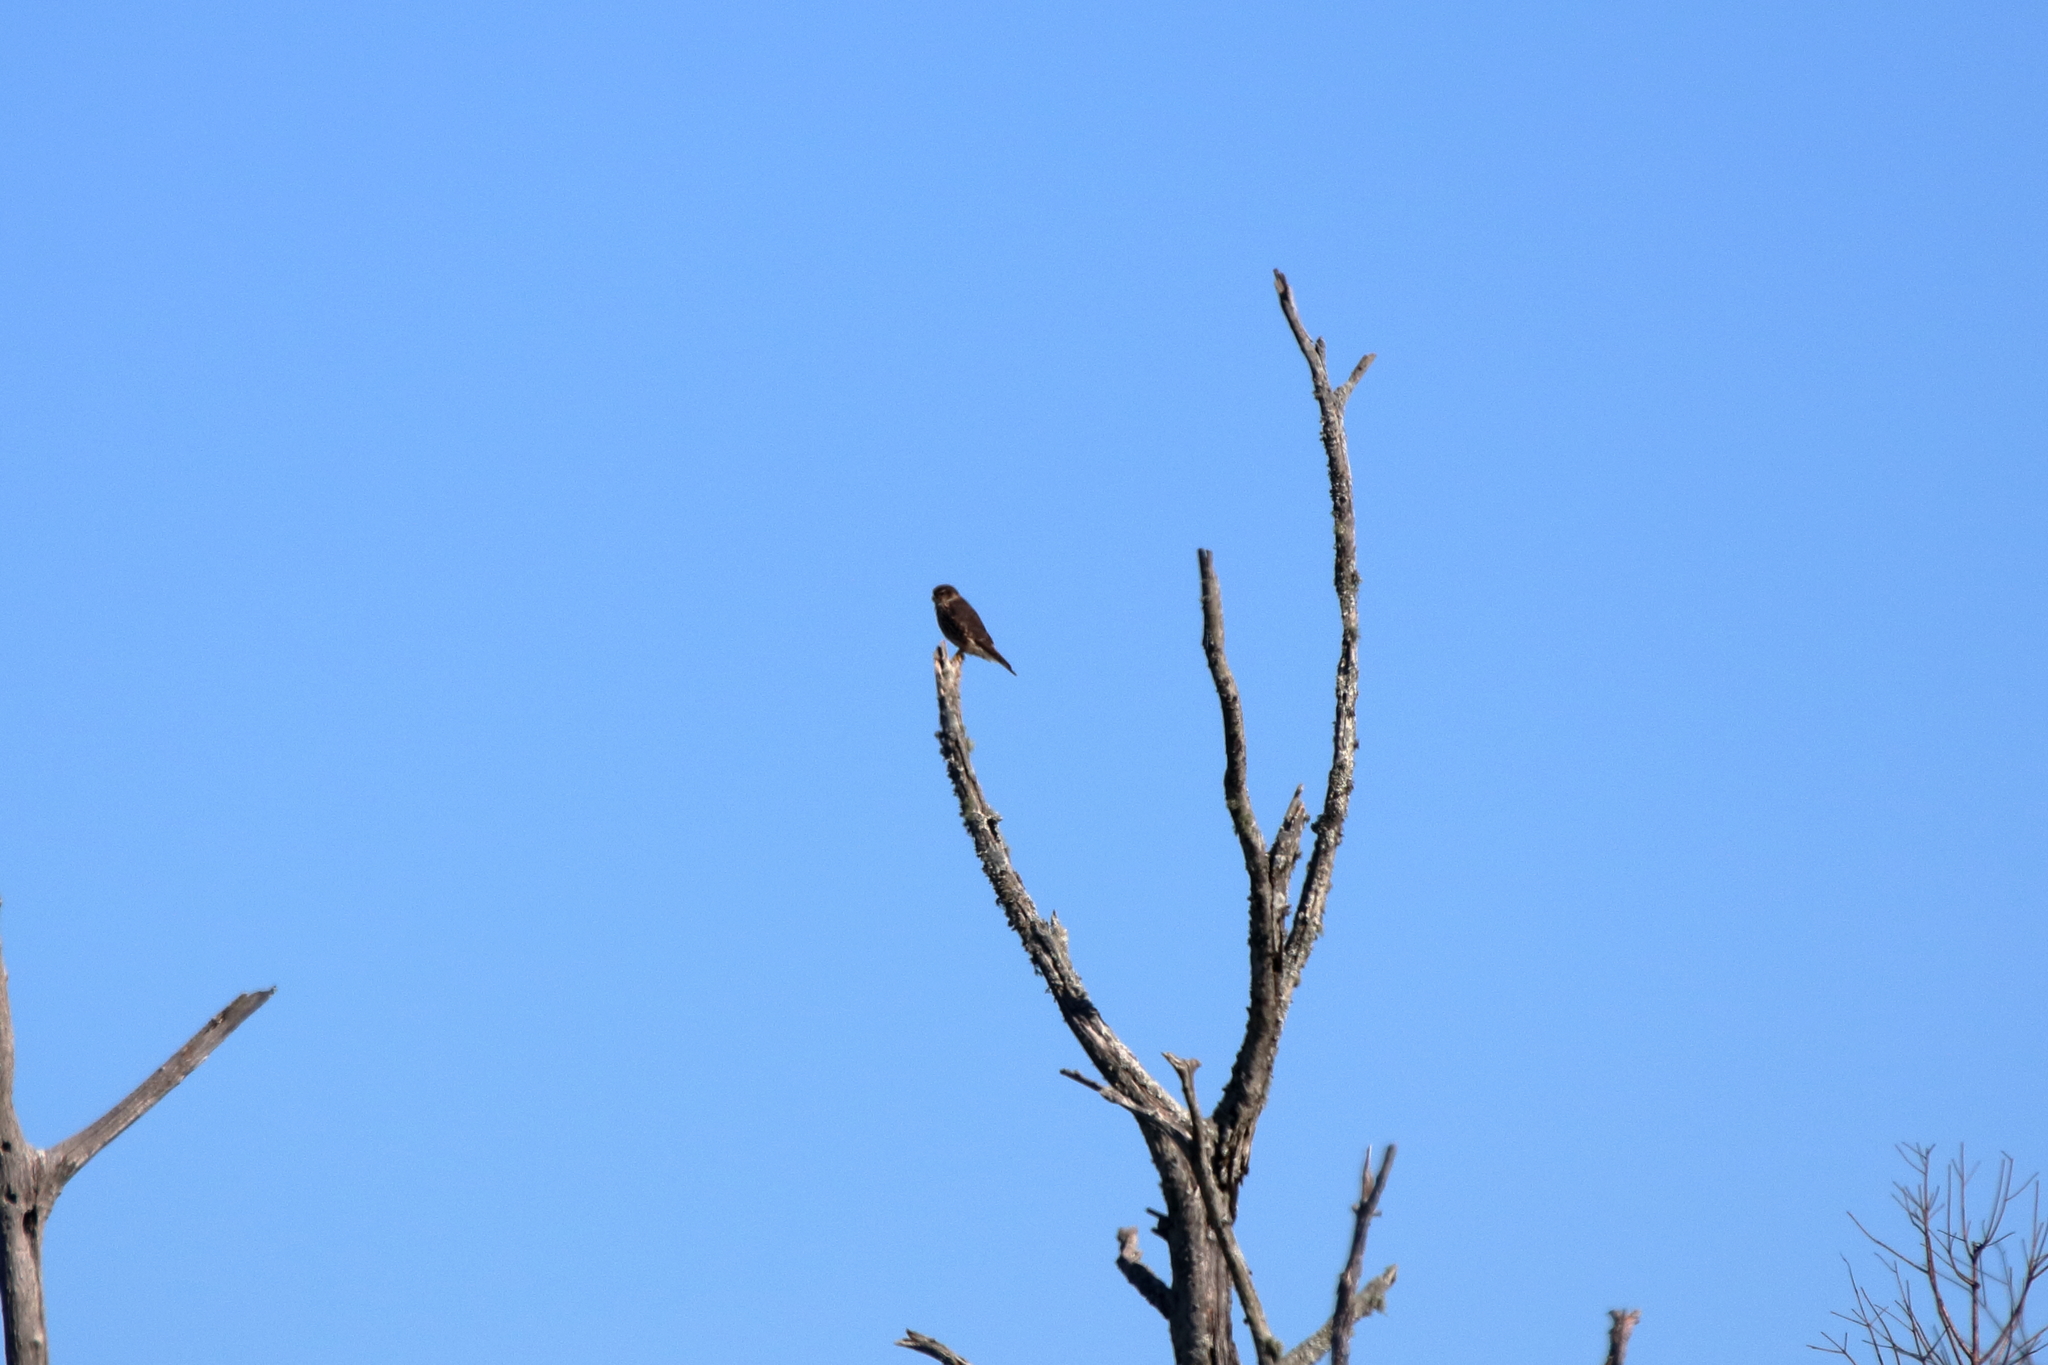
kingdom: Animalia
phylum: Chordata
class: Aves
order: Falconiformes
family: Falconidae
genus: Falco
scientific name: Falco columbarius
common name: Merlin
